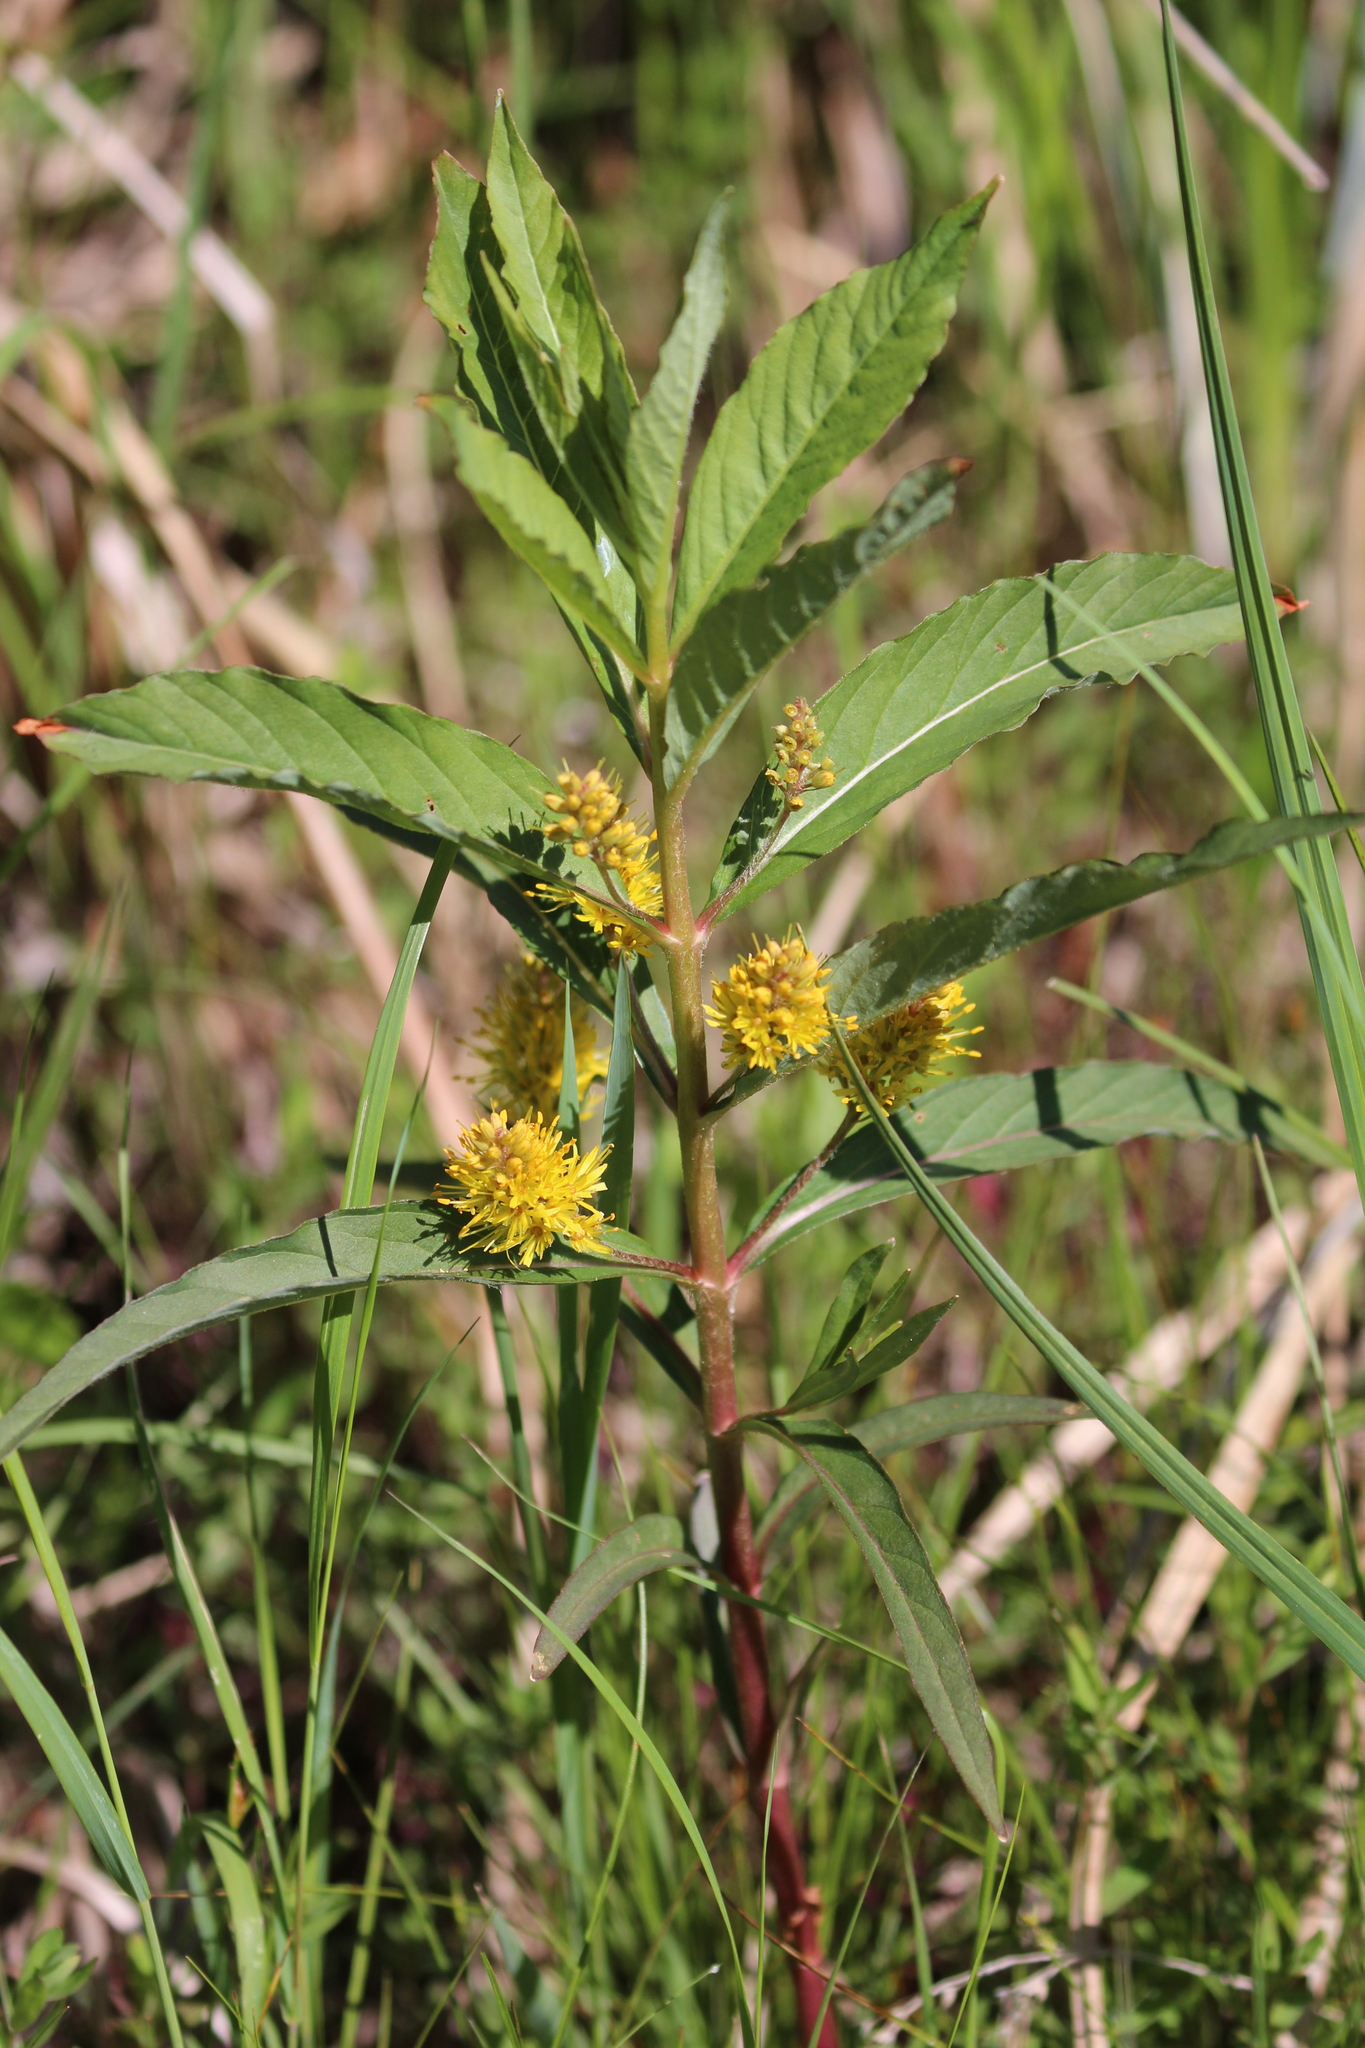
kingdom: Plantae
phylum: Tracheophyta
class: Magnoliopsida
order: Ericales
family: Primulaceae
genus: Lysimachia
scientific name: Lysimachia thyrsiflora
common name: Tufted loosestrife
